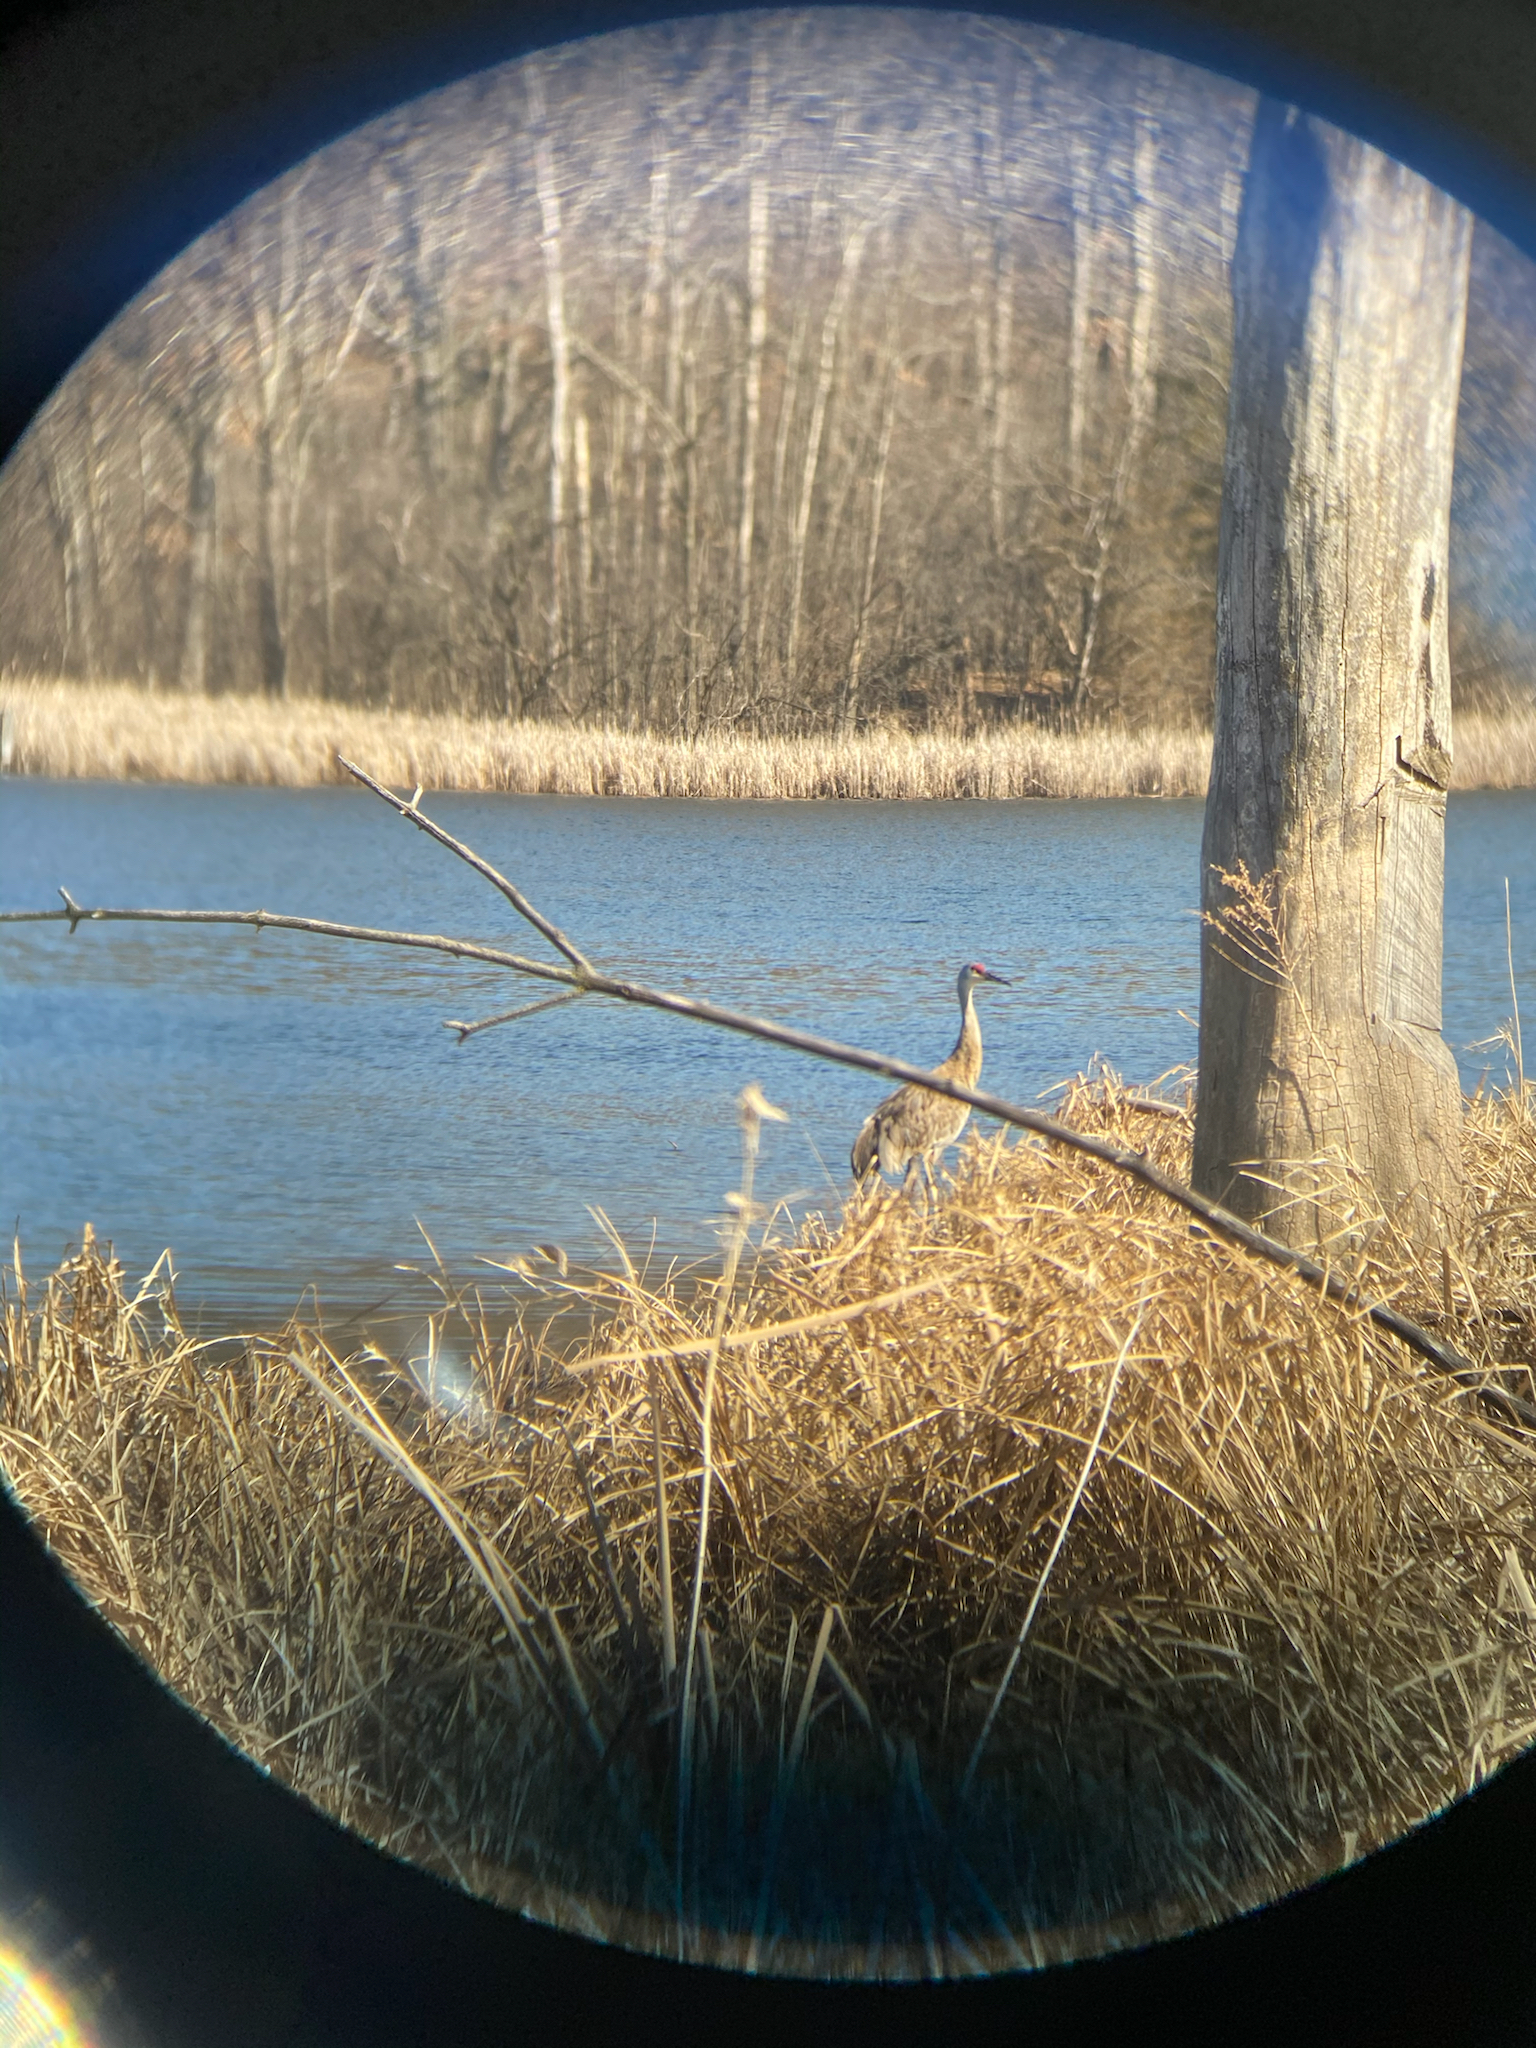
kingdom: Animalia
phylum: Chordata
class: Aves
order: Gruiformes
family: Gruidae
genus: Grus
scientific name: Grus canadensis
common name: Sandhill crane
